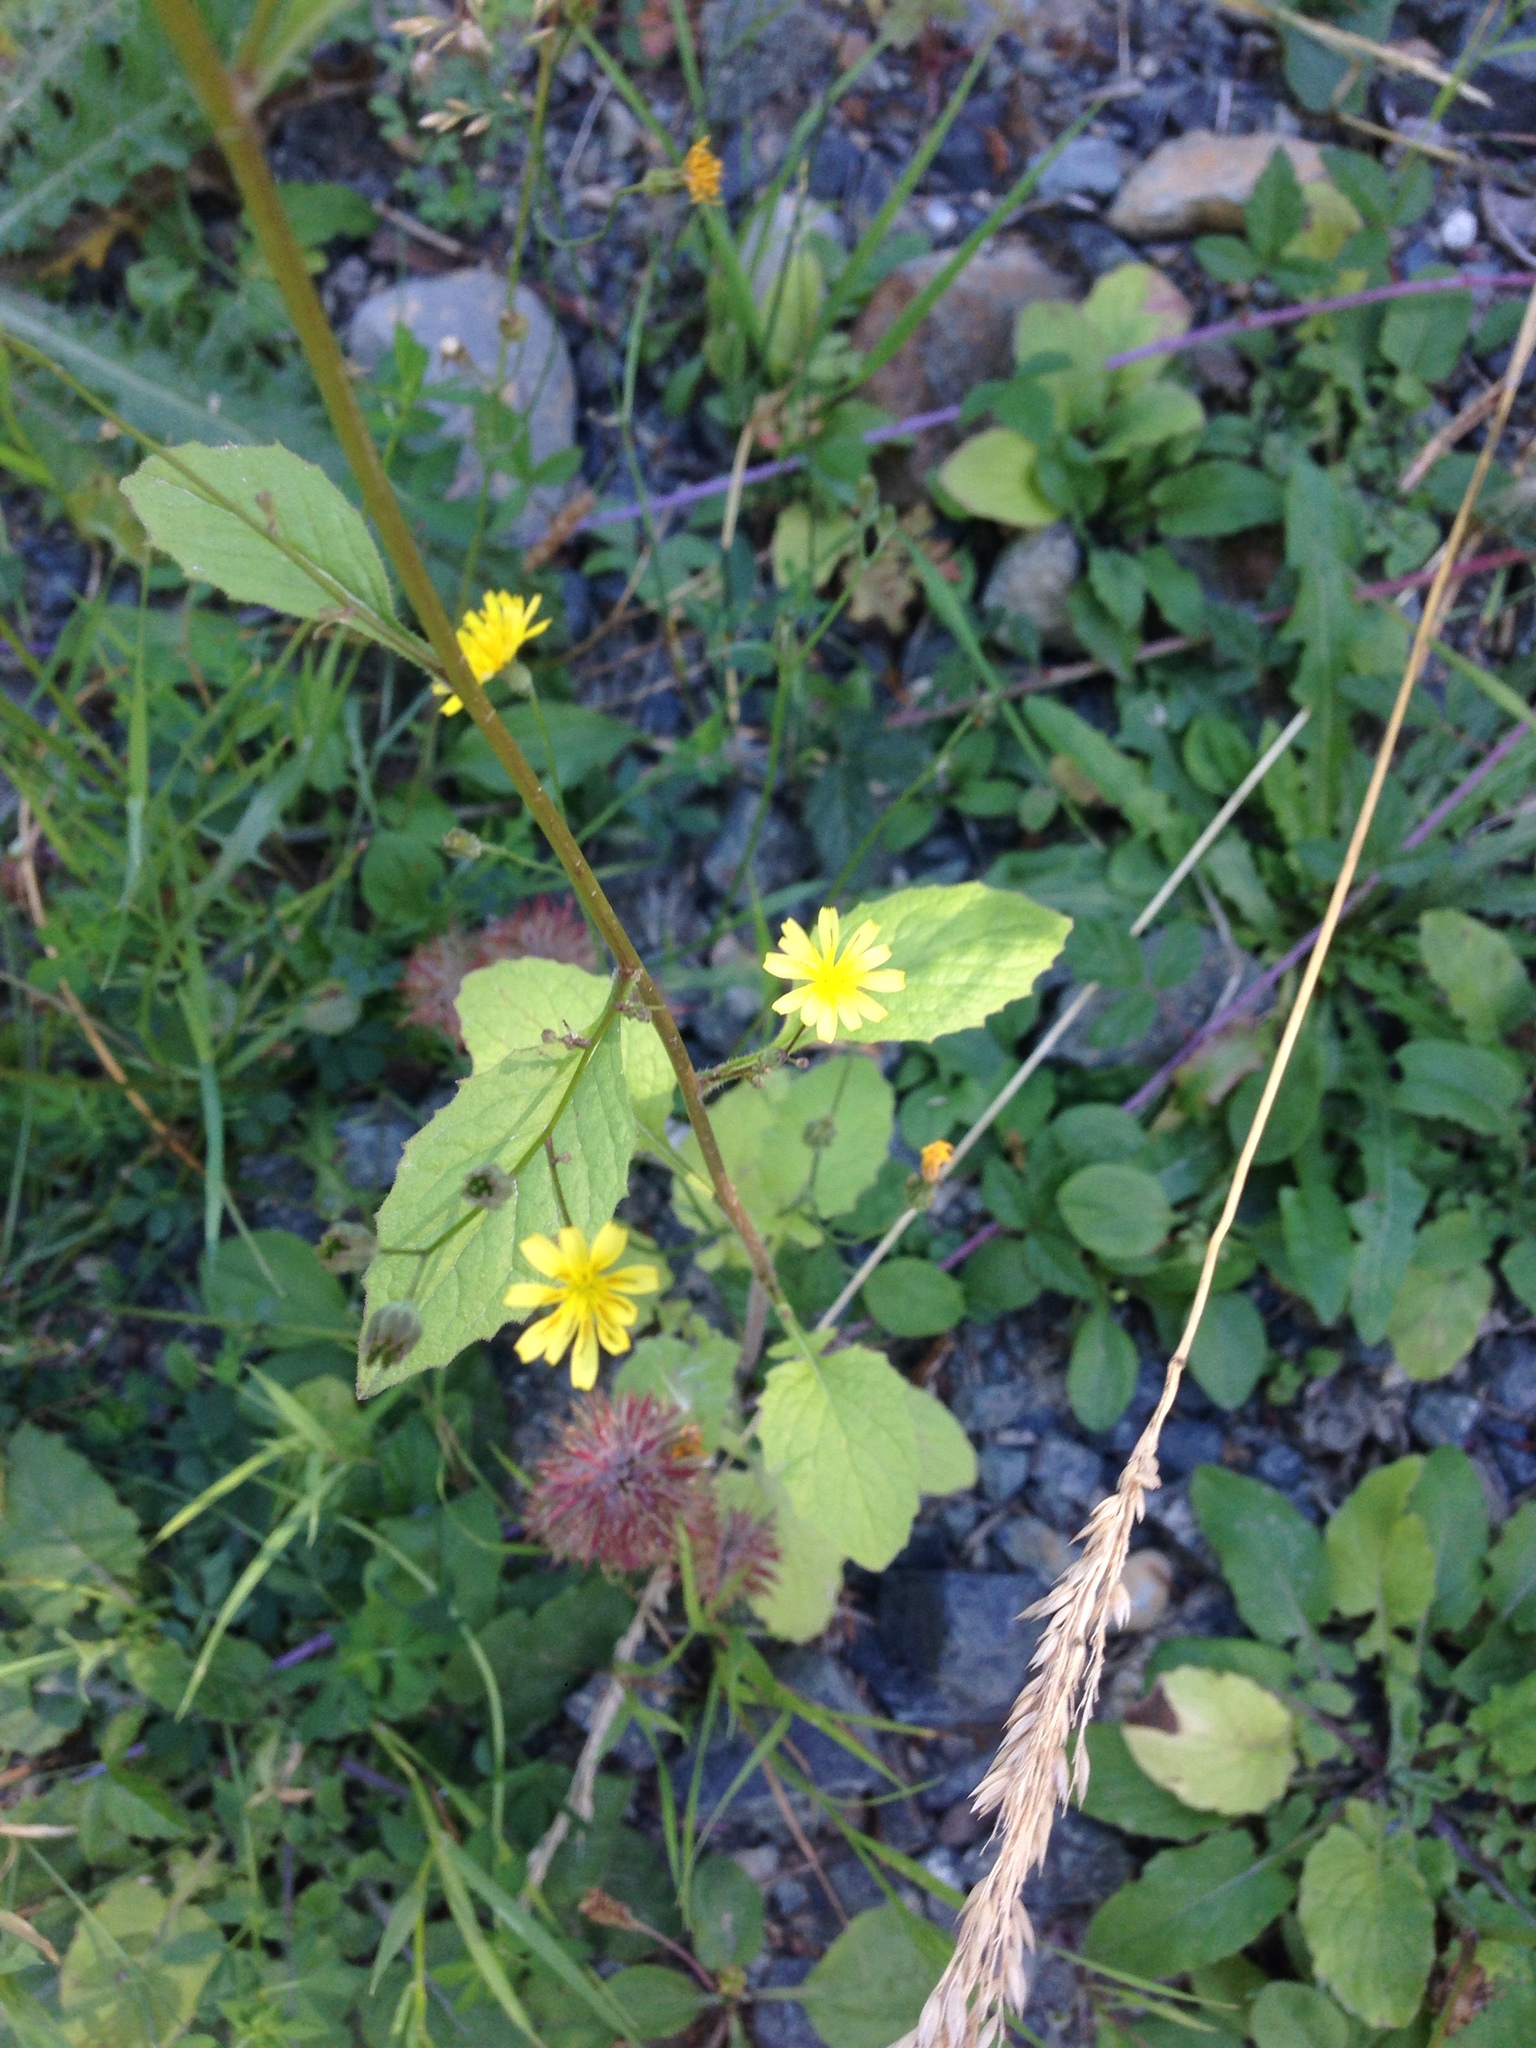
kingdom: Plantae
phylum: Tracheophyta
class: Magnoliopsida
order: Asterales
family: Asteraceae
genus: Lapsana
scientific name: Lapsana communis
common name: Nipplewort
